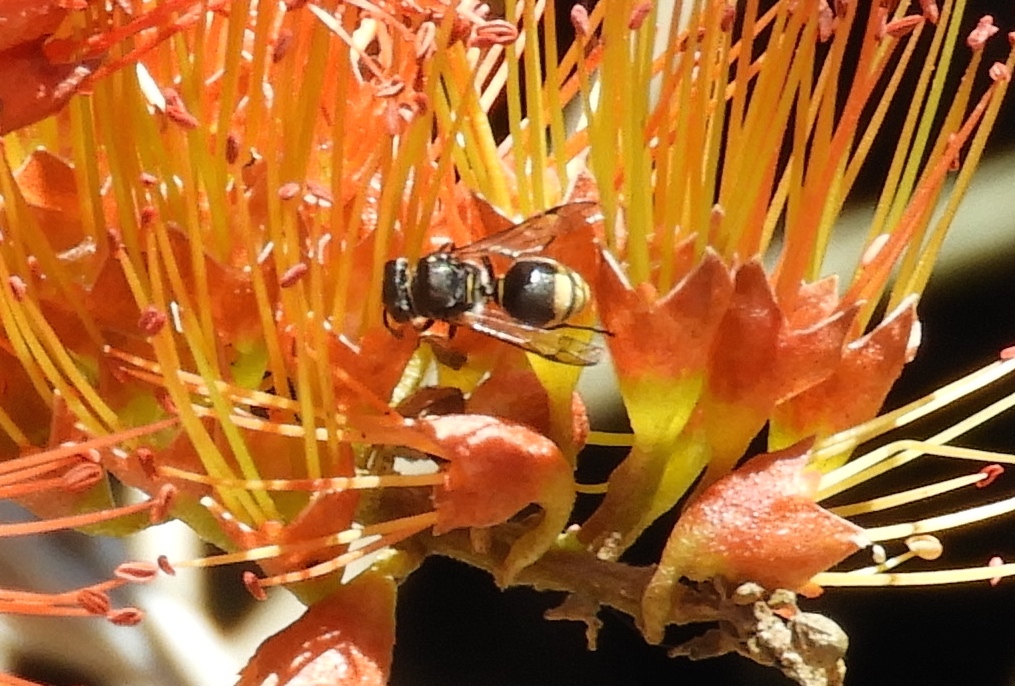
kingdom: Animalia
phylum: Arthropoda
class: Insecta
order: Hymenoptera
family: Vespidae
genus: Brachygastra
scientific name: Brachygastra azteca
